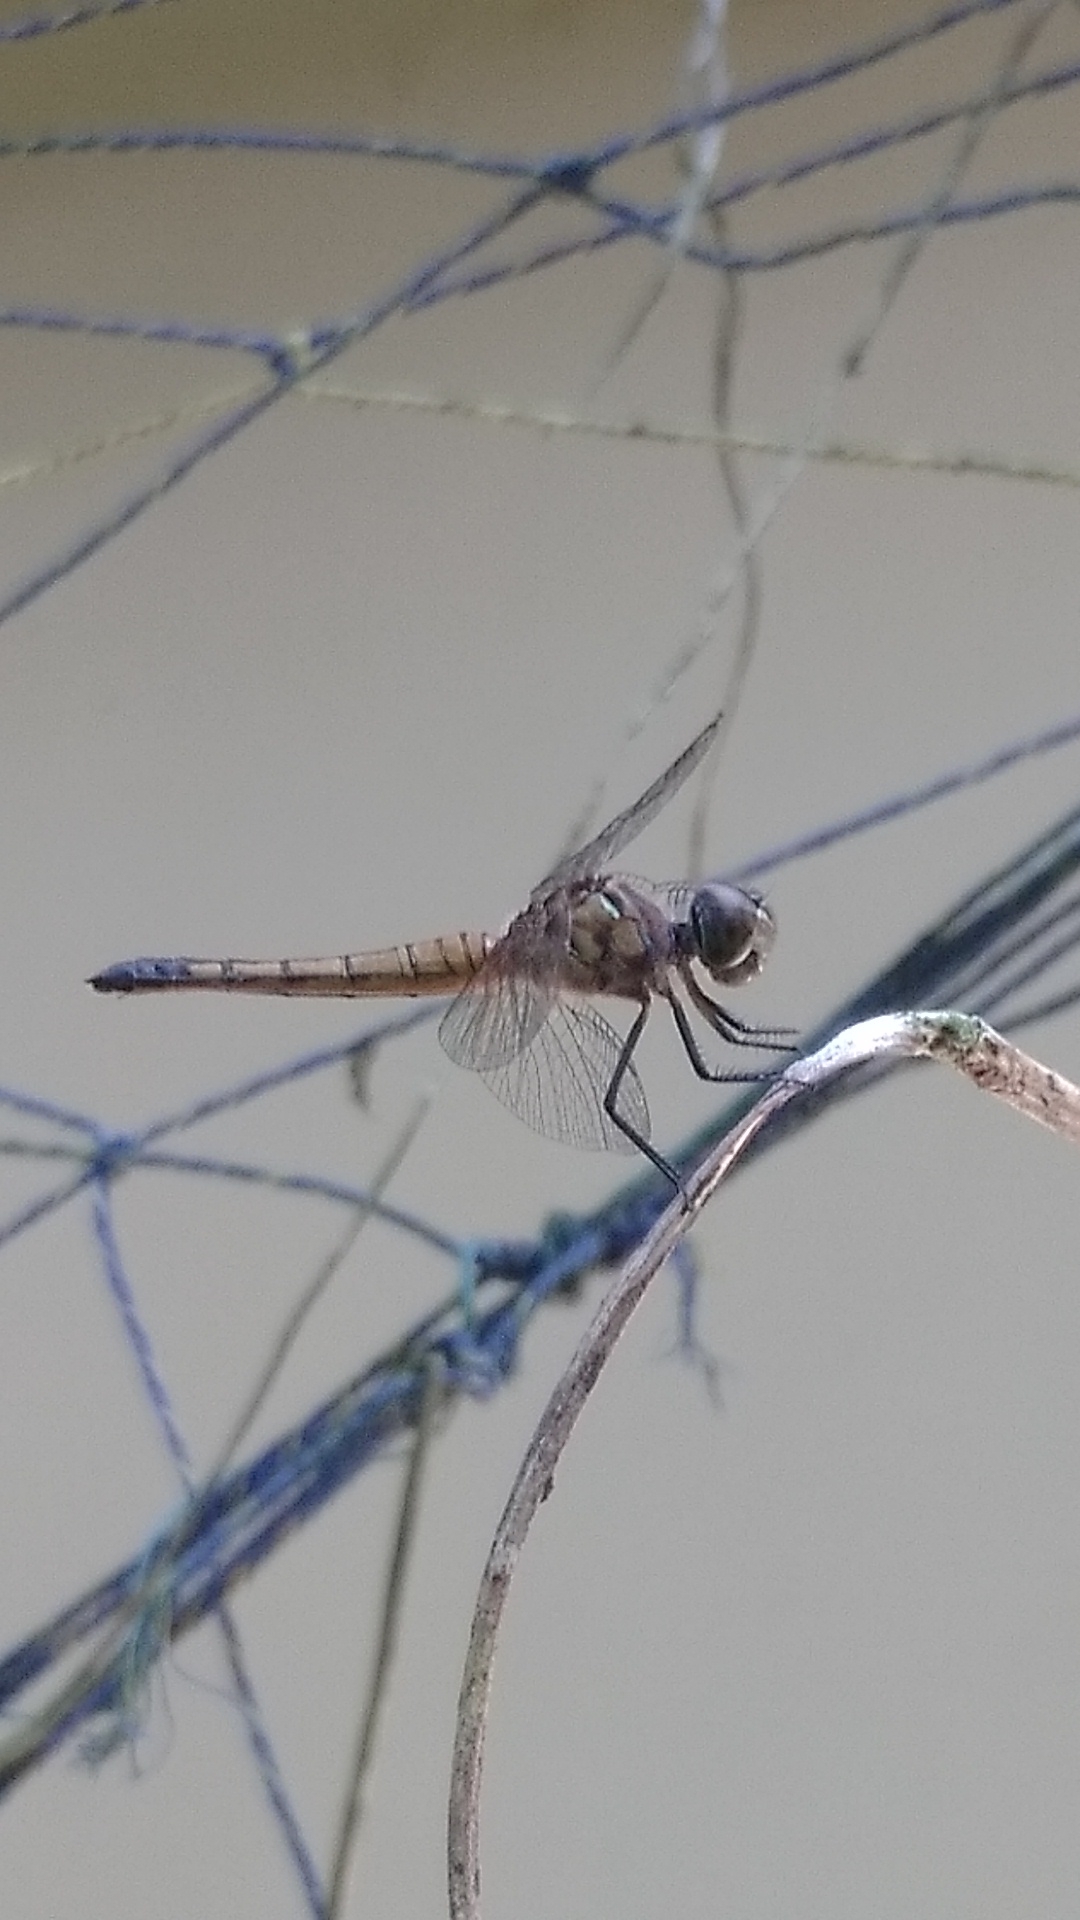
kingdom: Animalia
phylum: Arthropoda
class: Insecta
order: Odonata
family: Libellulidae
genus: Brachydiplax
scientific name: Brachydiplax chalybea
